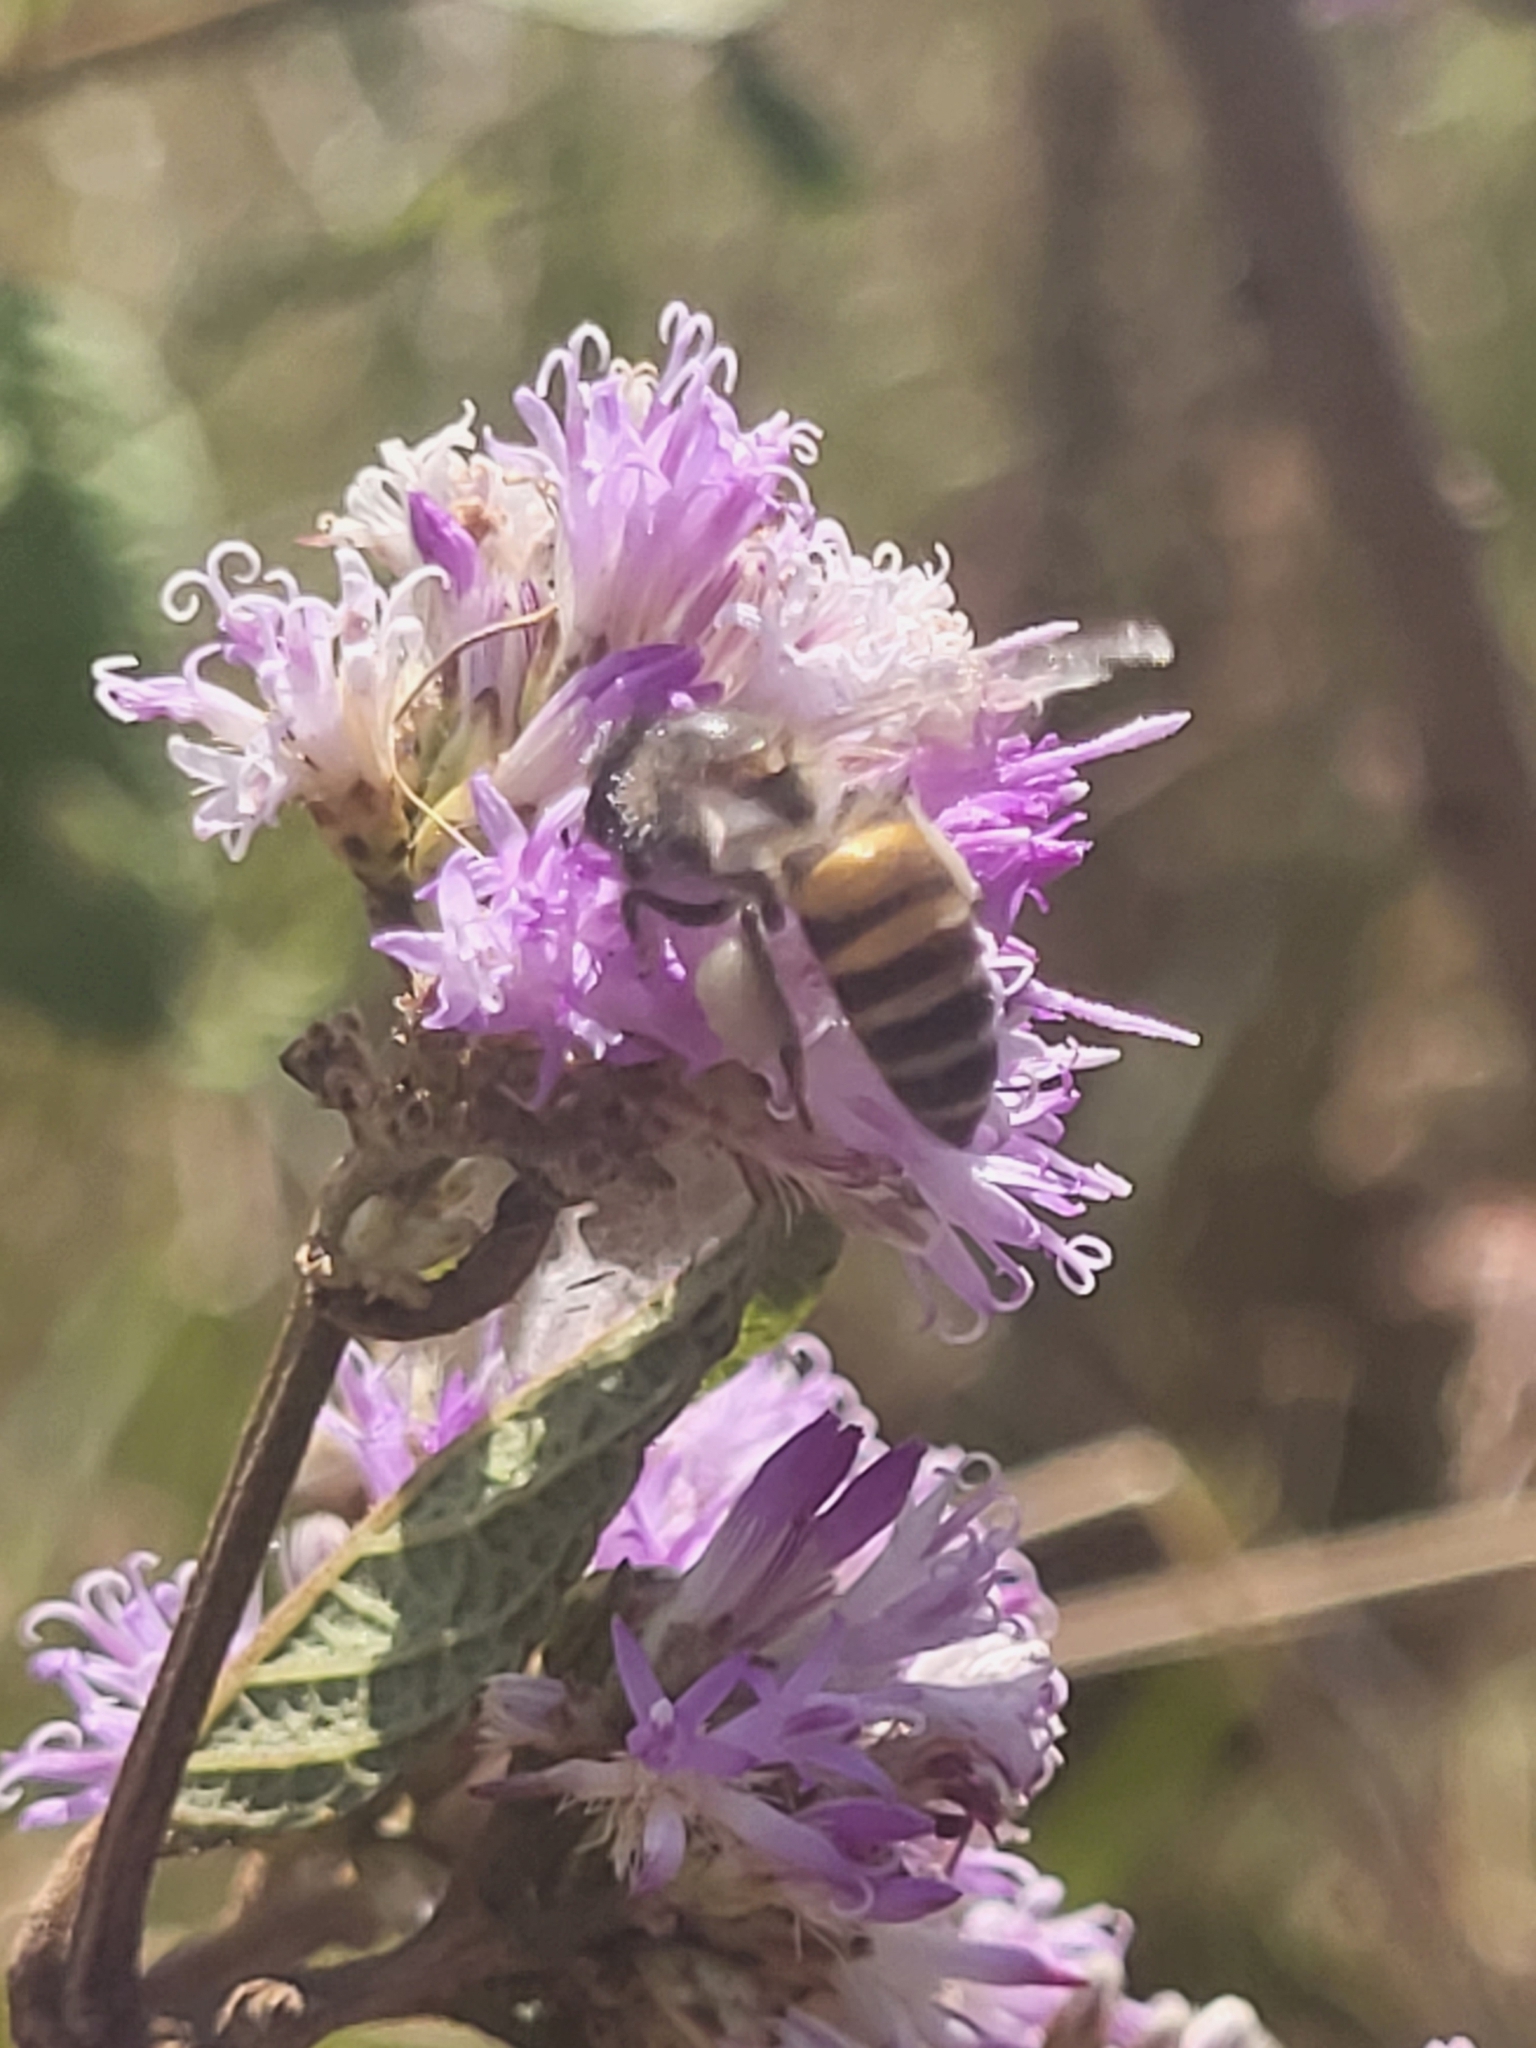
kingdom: Animalia
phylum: Arthropoda
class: Insecta
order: Hymenoptera
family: Apidae
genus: Apis
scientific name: Apis cerana
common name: Honey bee
